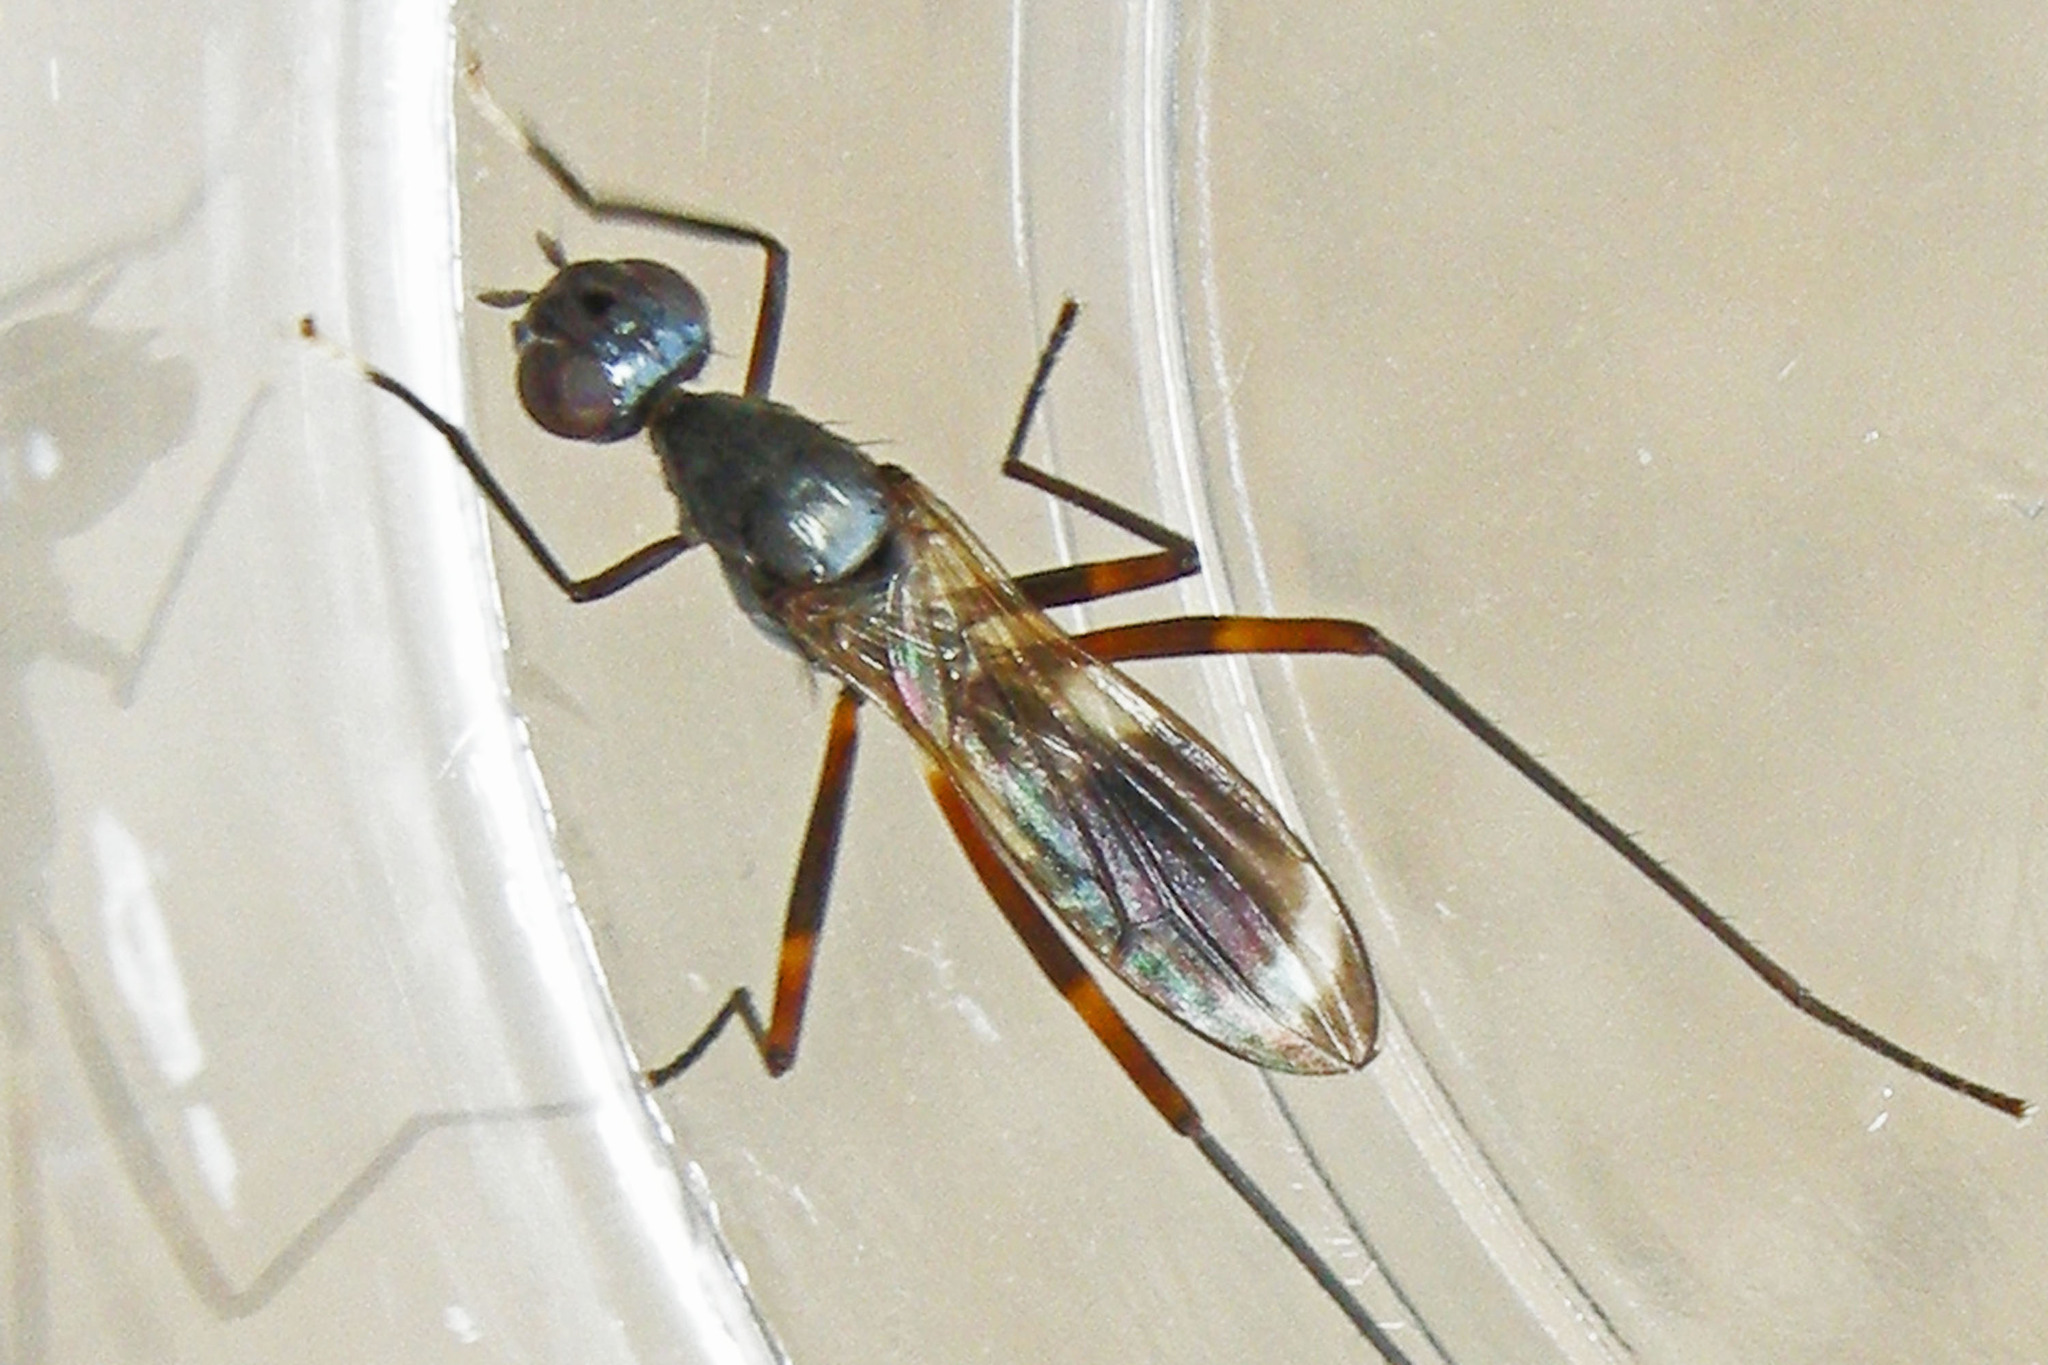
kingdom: Animalia
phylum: Arthropoda
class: Insecta
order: Diptera
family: Micropezidae
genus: Taeniaptera
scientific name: Taeniaptera trivittata
